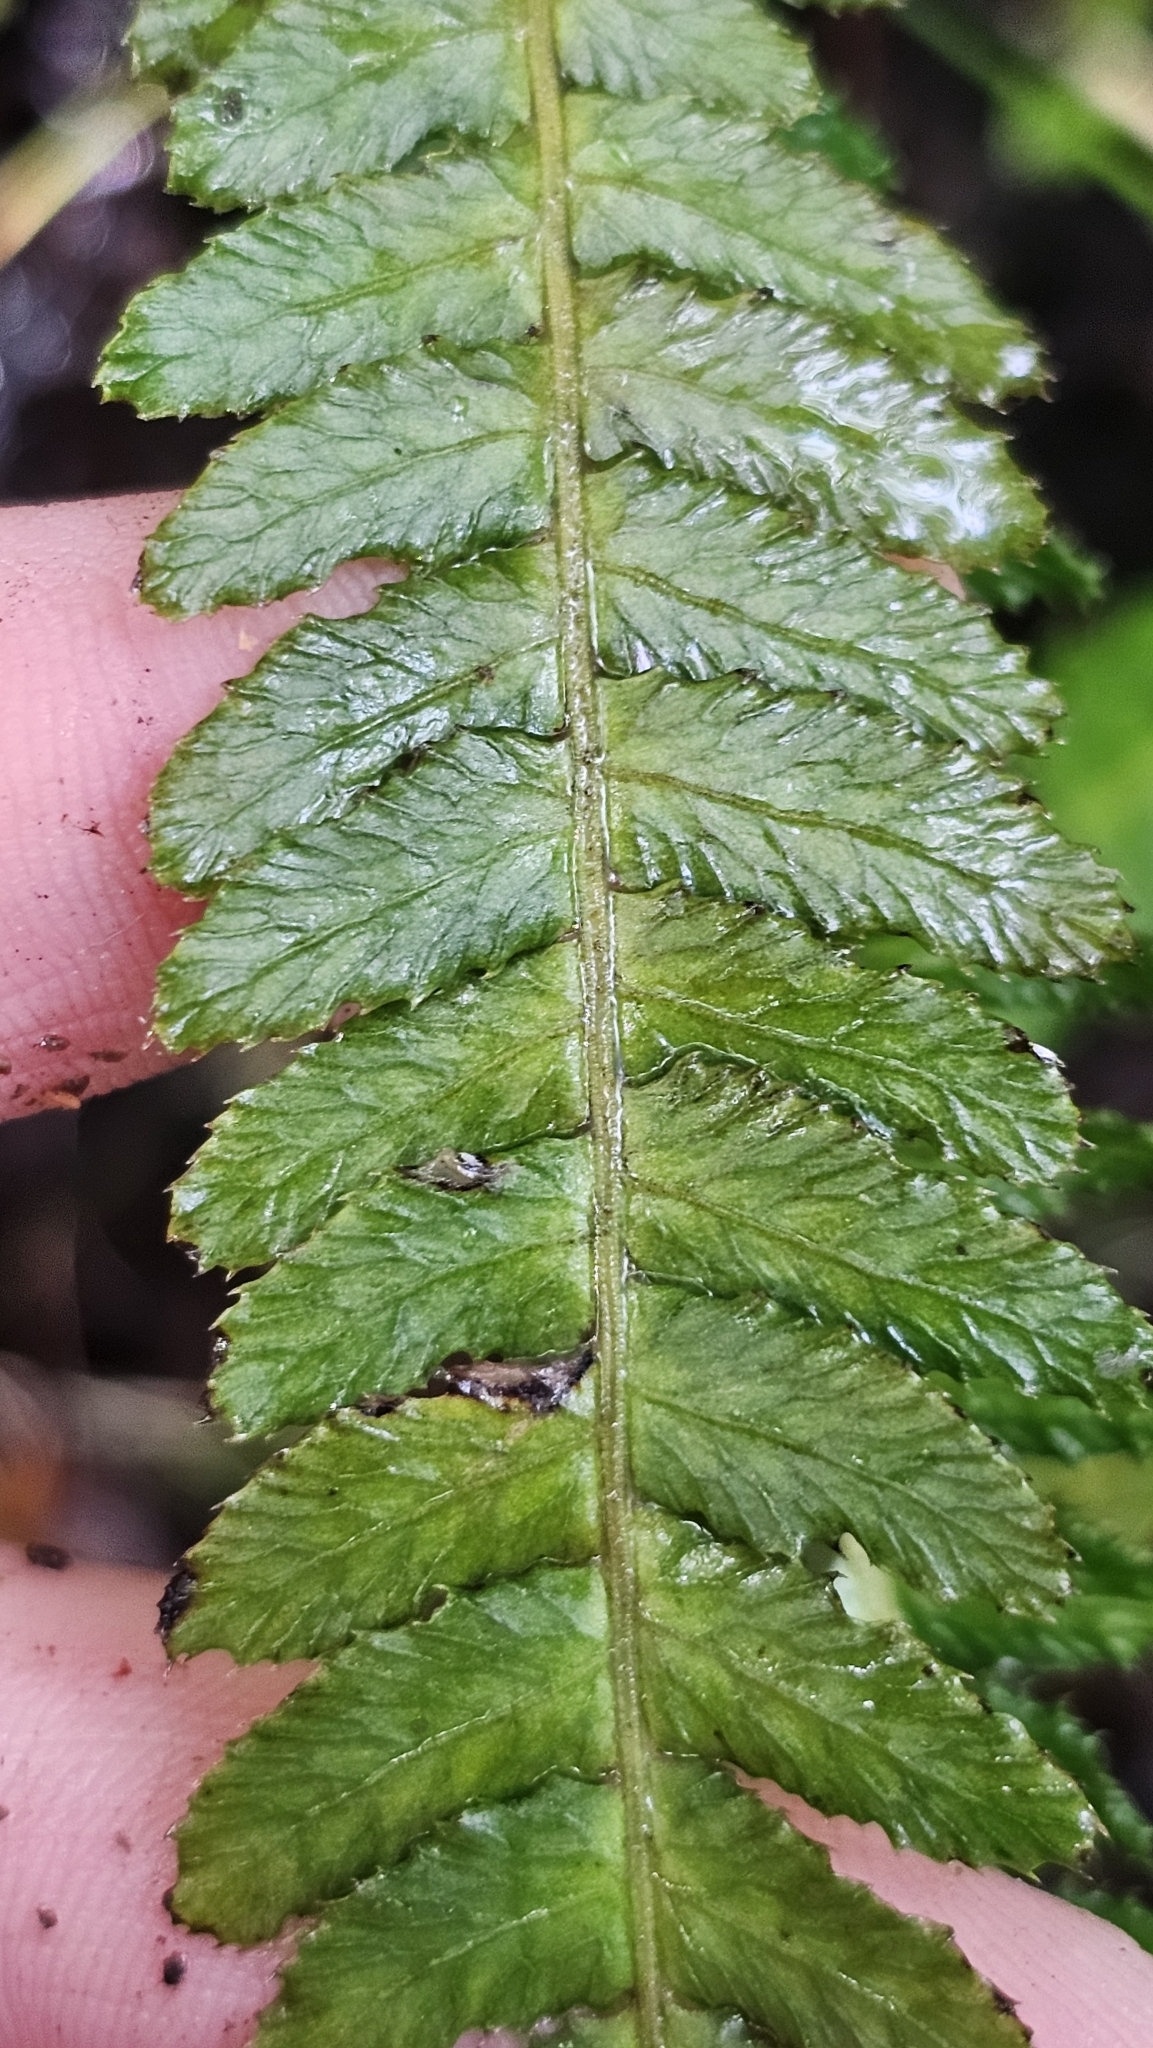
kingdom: Plantae
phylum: Tracheophyta
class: Polypodiopsida
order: Polypodiales
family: Blechnaceae
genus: Doodia
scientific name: Doodia australis
